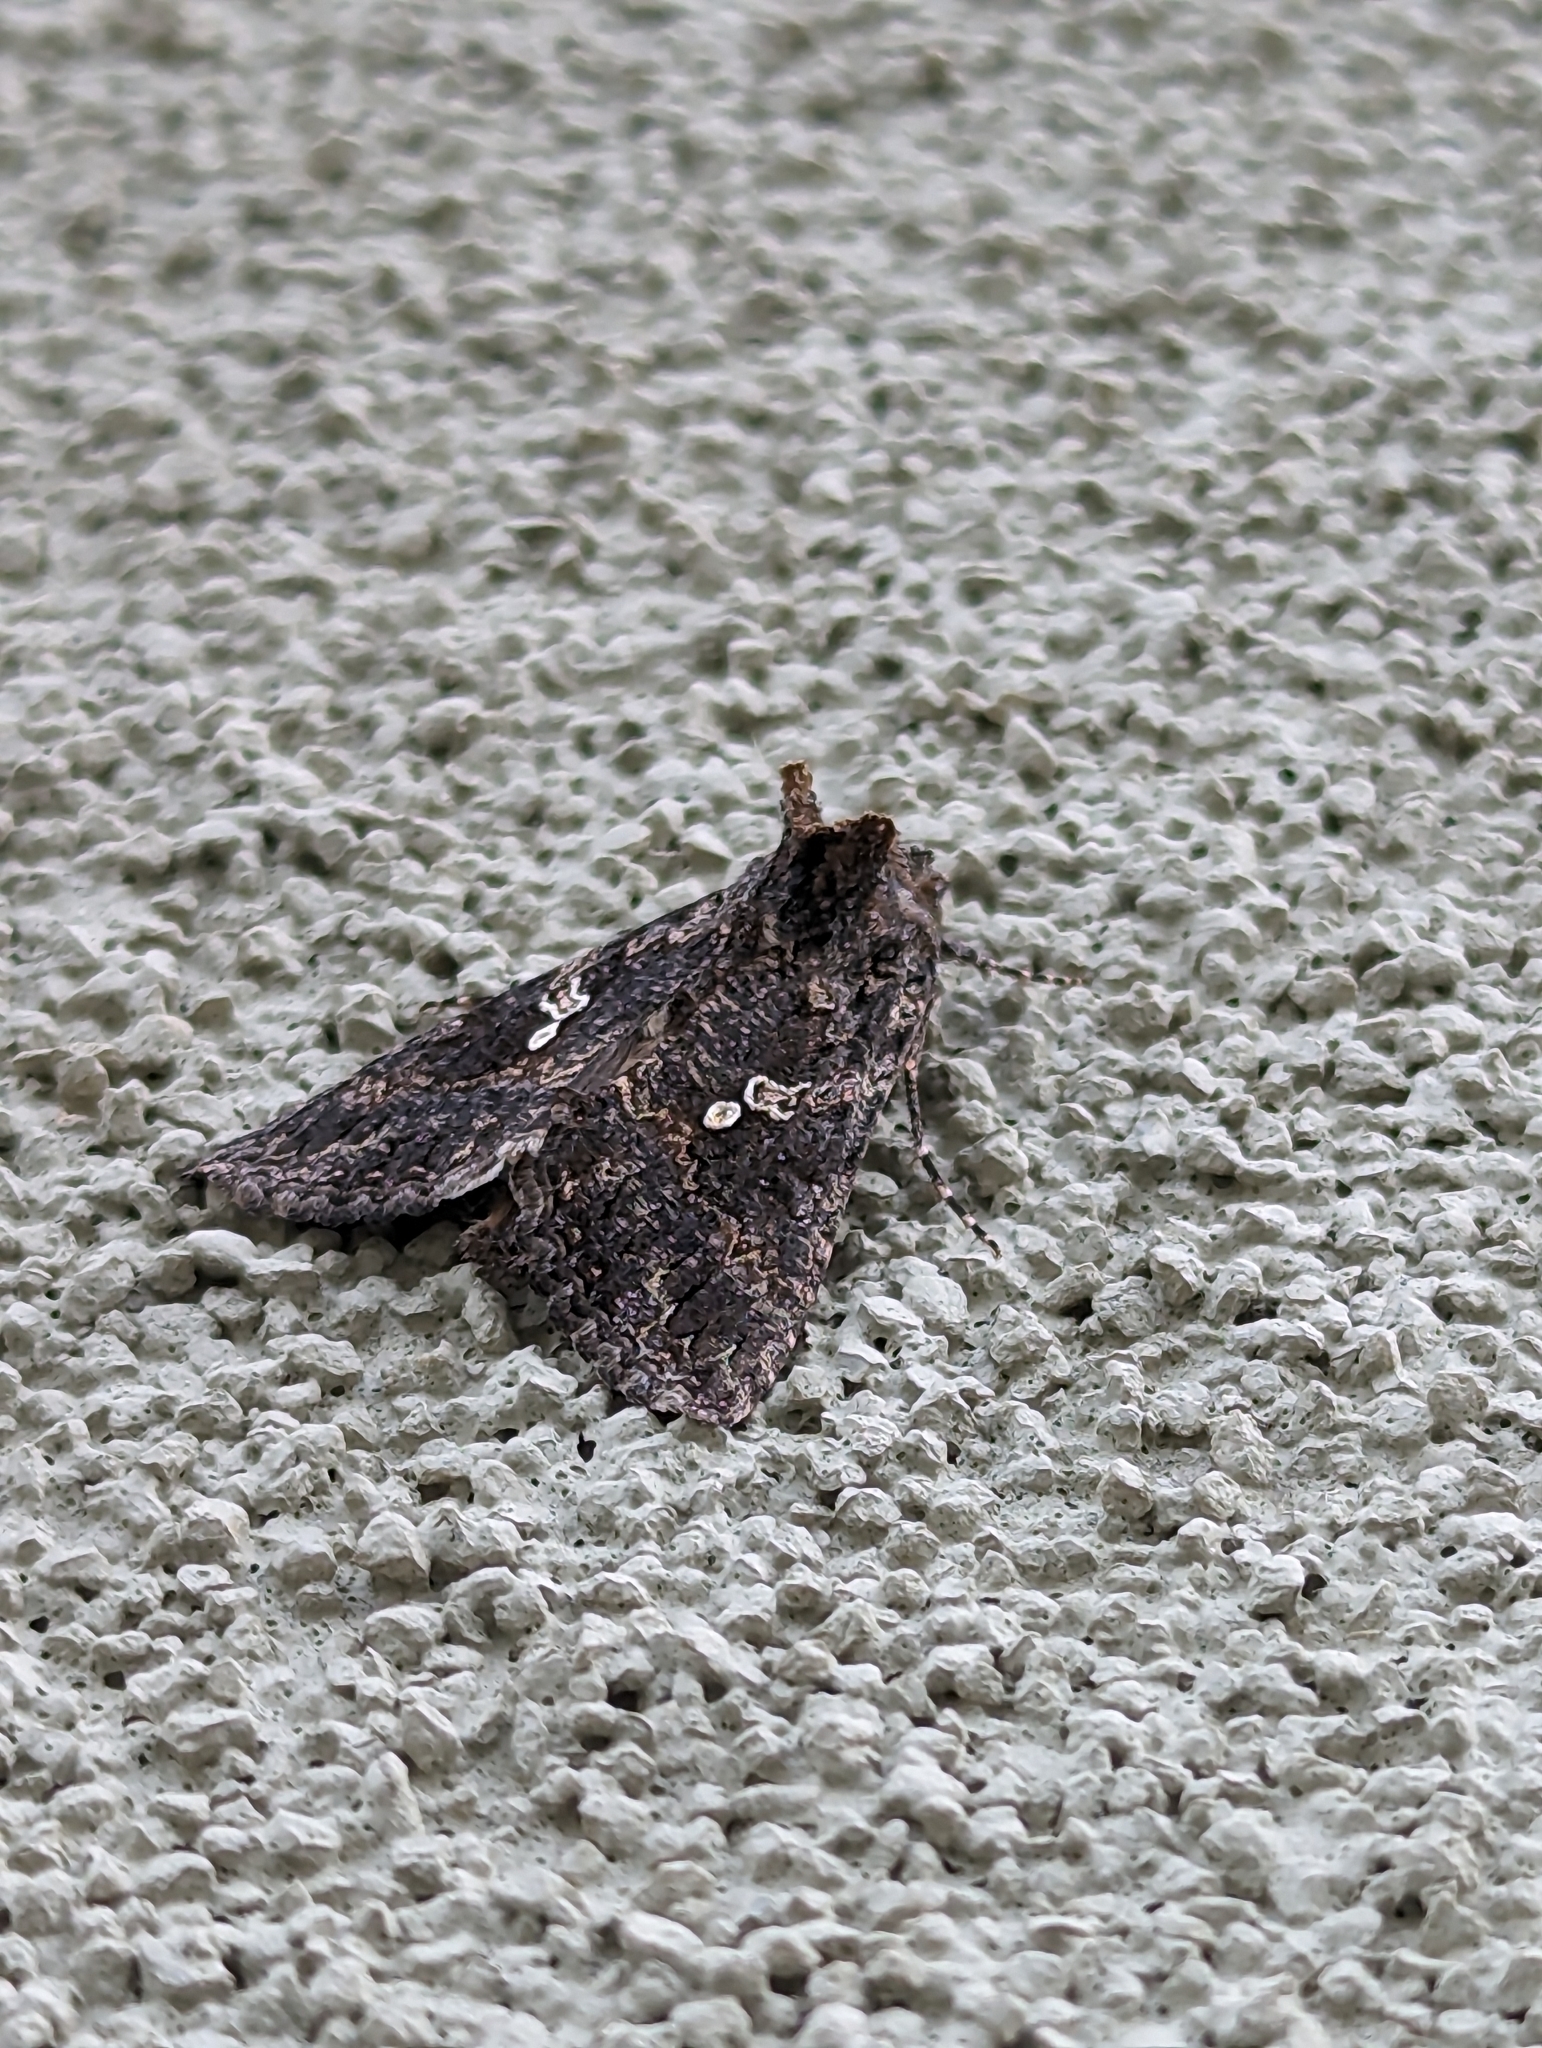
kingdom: Animalia
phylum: Arthropoda
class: Insecta
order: Lepidoptera
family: Noctuidae
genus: Trichoplusia
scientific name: Trichoplusia ni
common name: Ni moth
